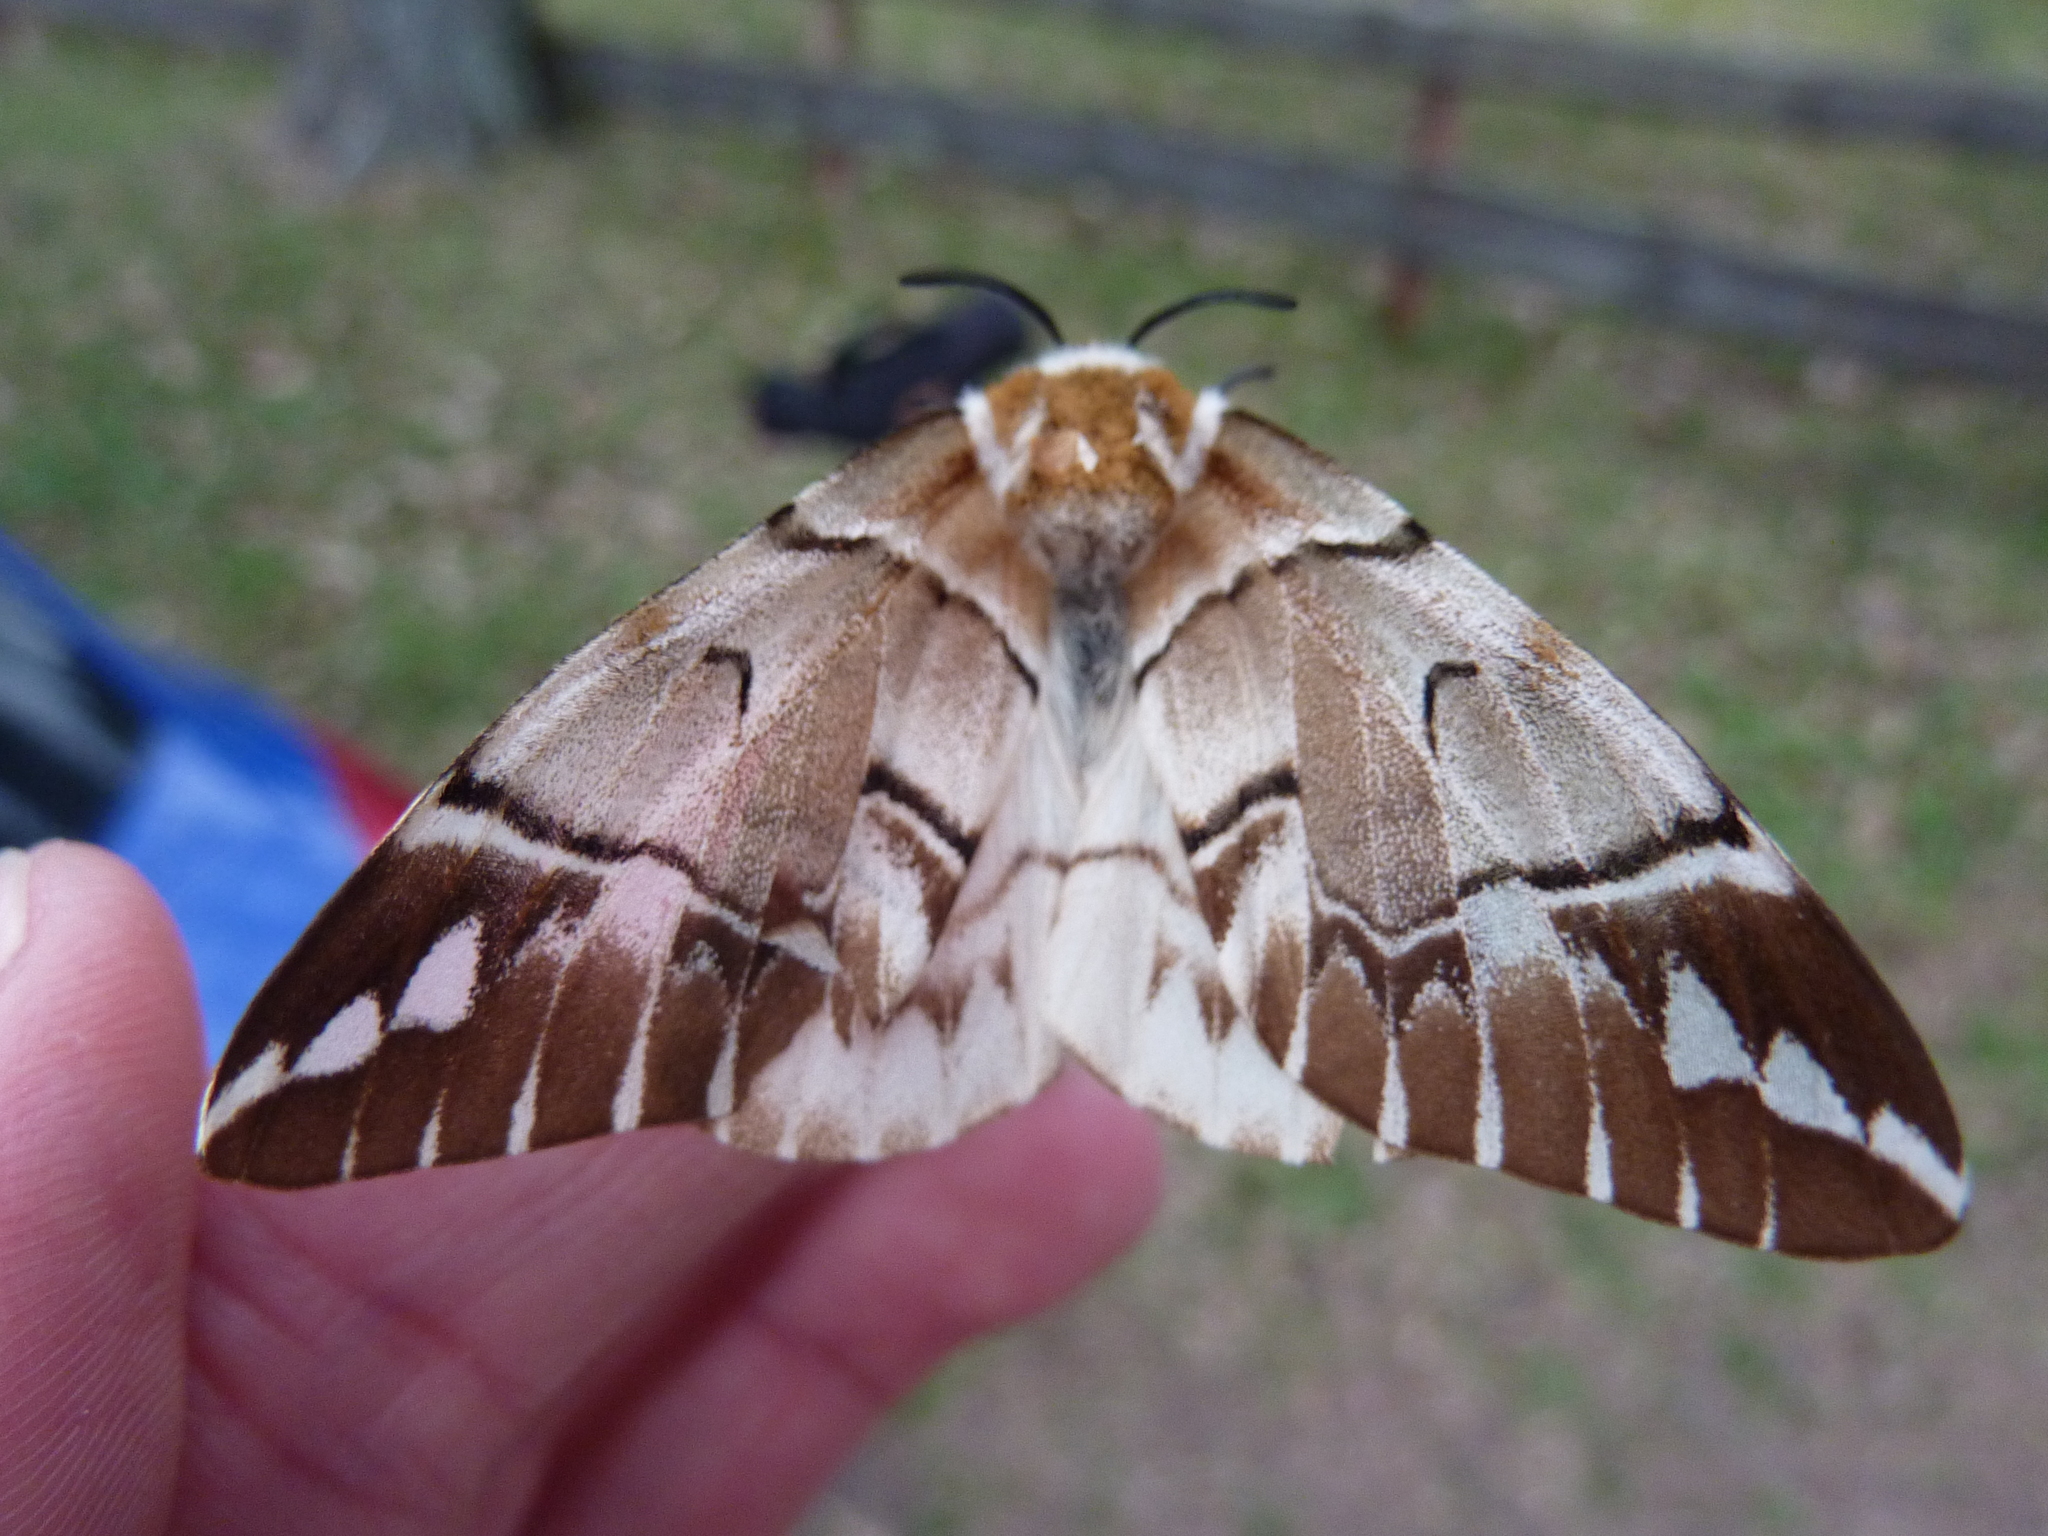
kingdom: Animalia
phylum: Arthropoda
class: Insecta
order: Lepidoptera
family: Endromidae
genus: Endromis
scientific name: Endromis versicolora
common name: Kentish glory
